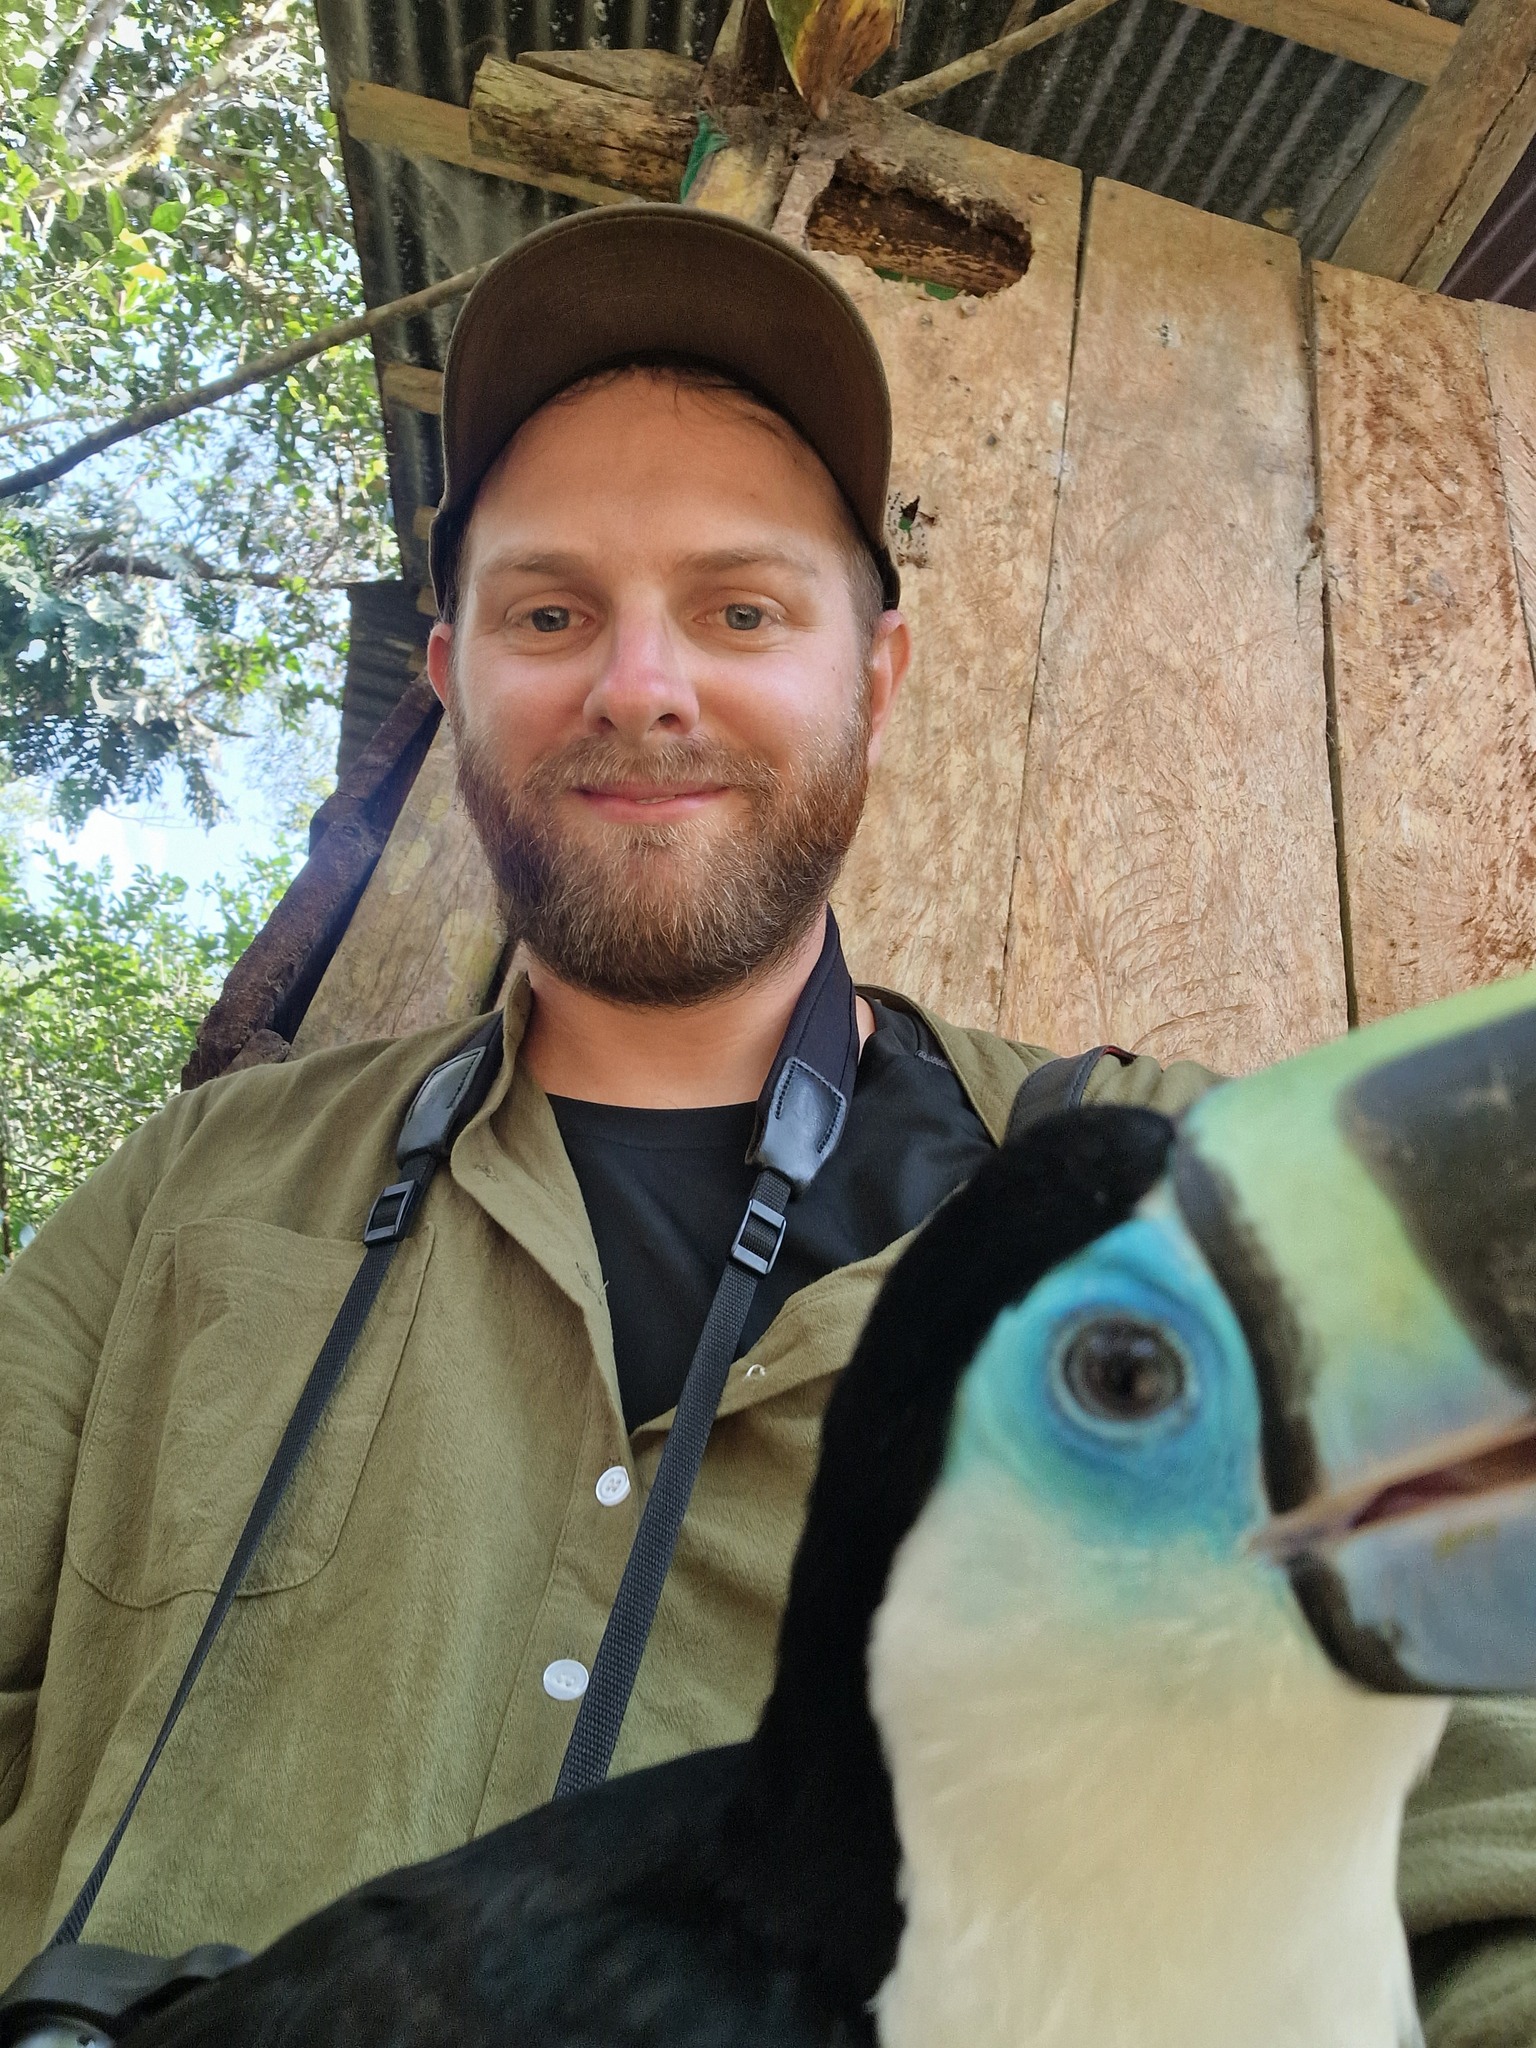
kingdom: Animalia
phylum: Chordata
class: Aves
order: Piciformes
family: Ramphastidae
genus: Ramphastos
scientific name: Ramphastos tucanus
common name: White-throated toucan
